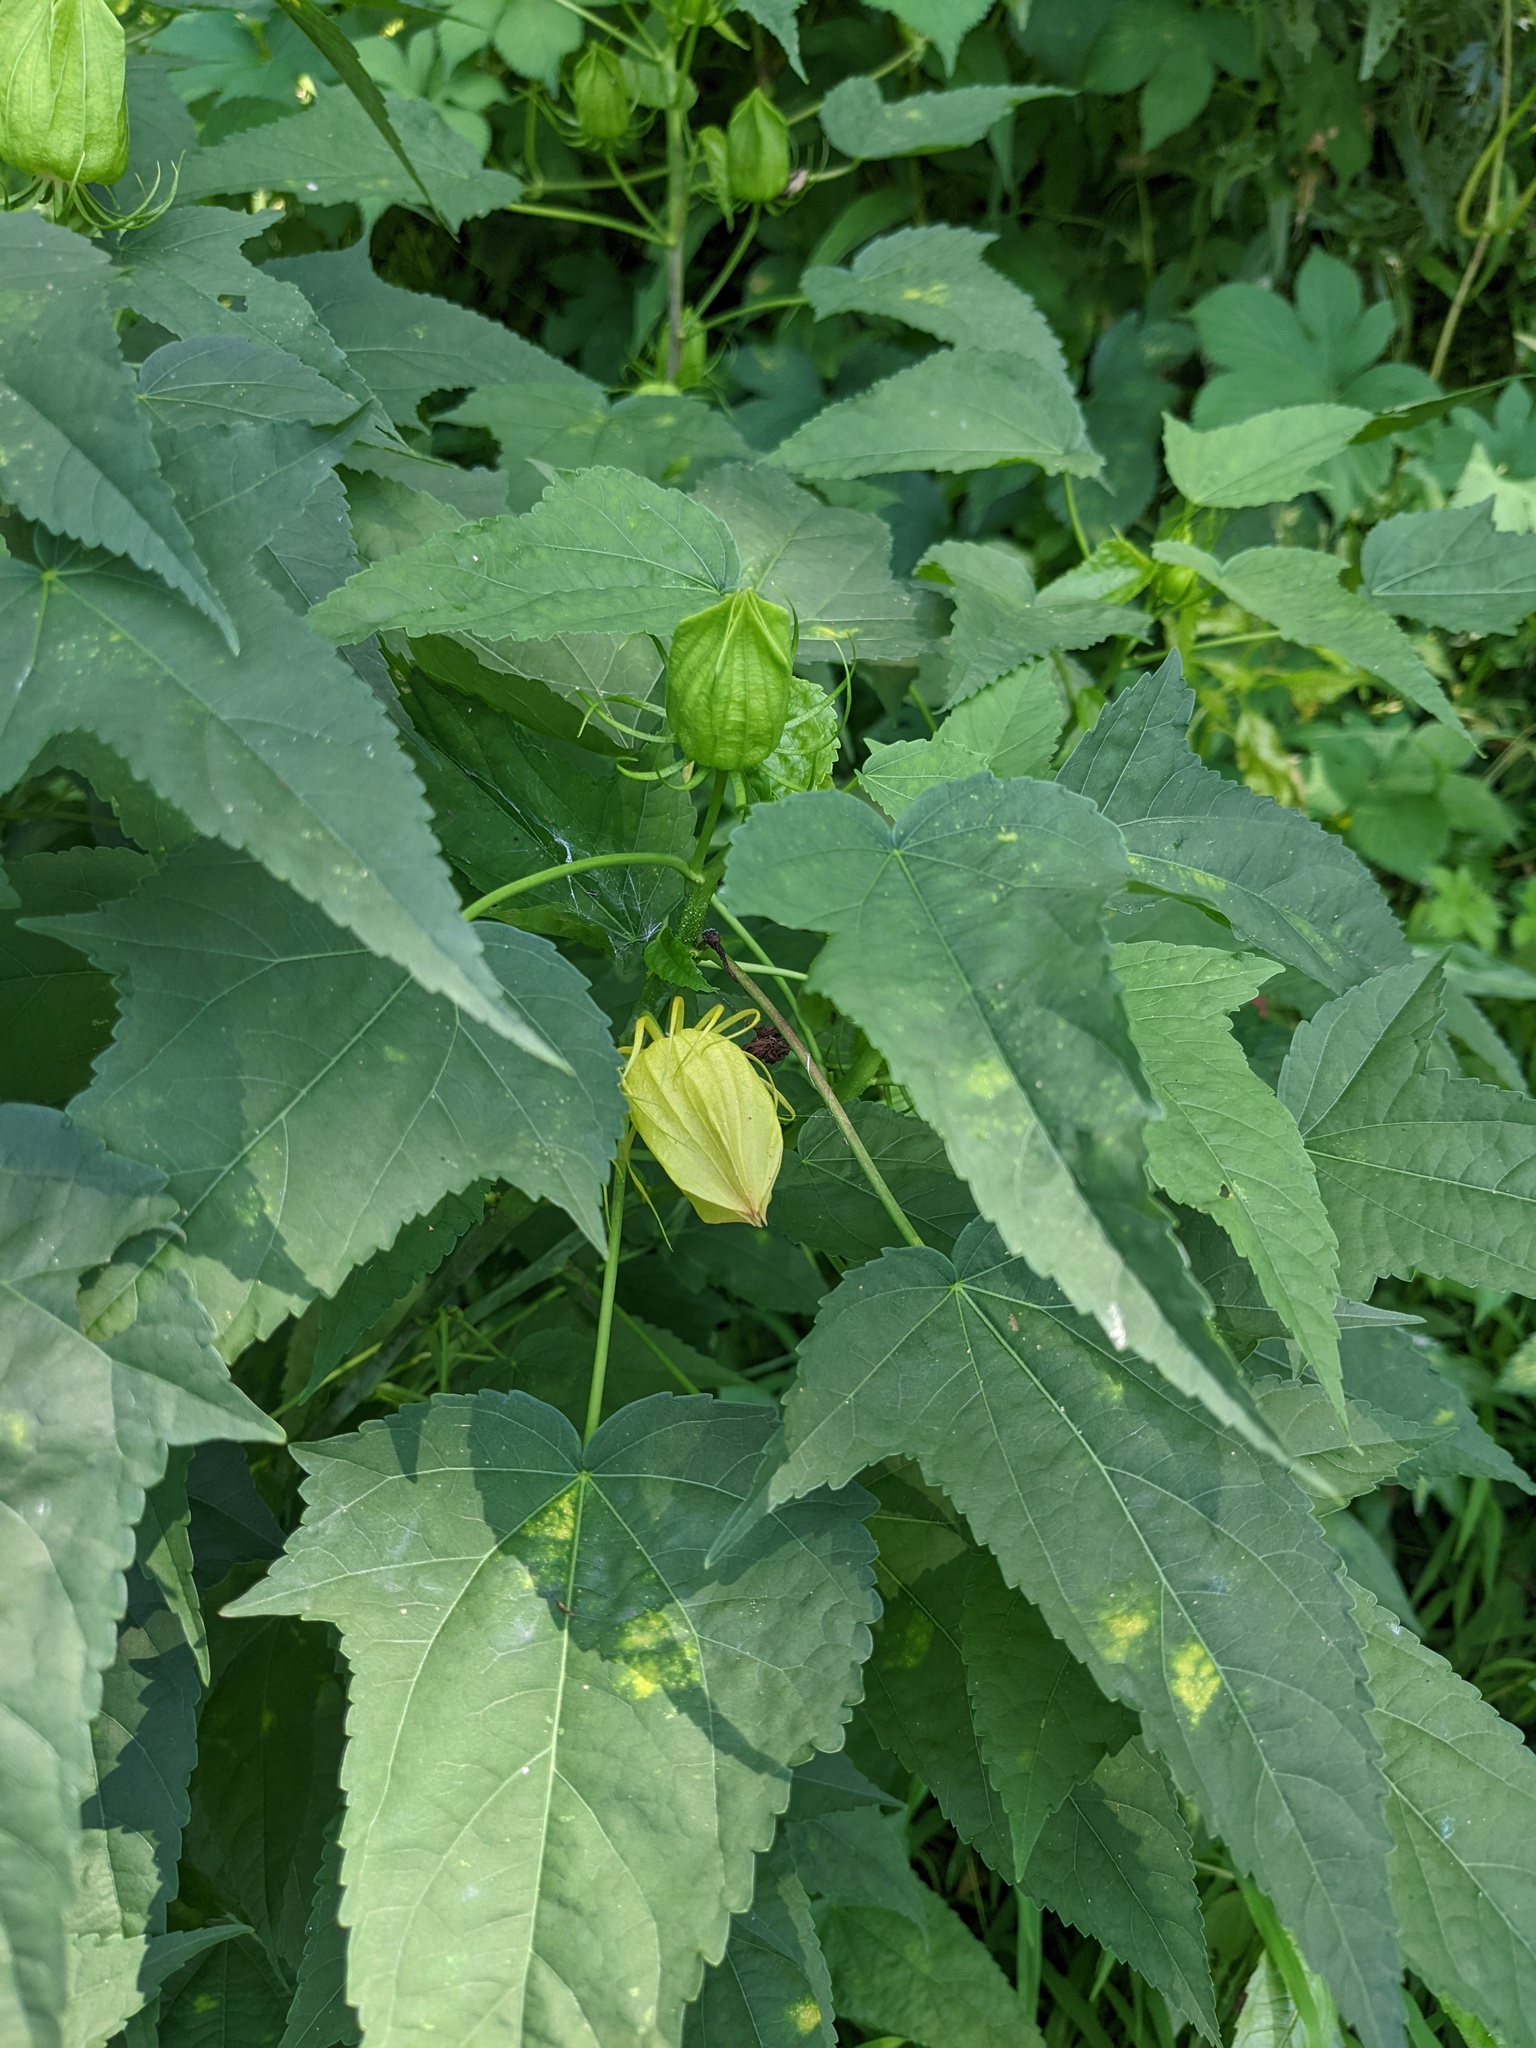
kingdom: Plantae
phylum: Tracheophyta
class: Magnoliopsida
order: Malvales
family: Malvaceae
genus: Hibiscus
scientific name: Hibiscus laevis
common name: Scarlet rose-mallow
